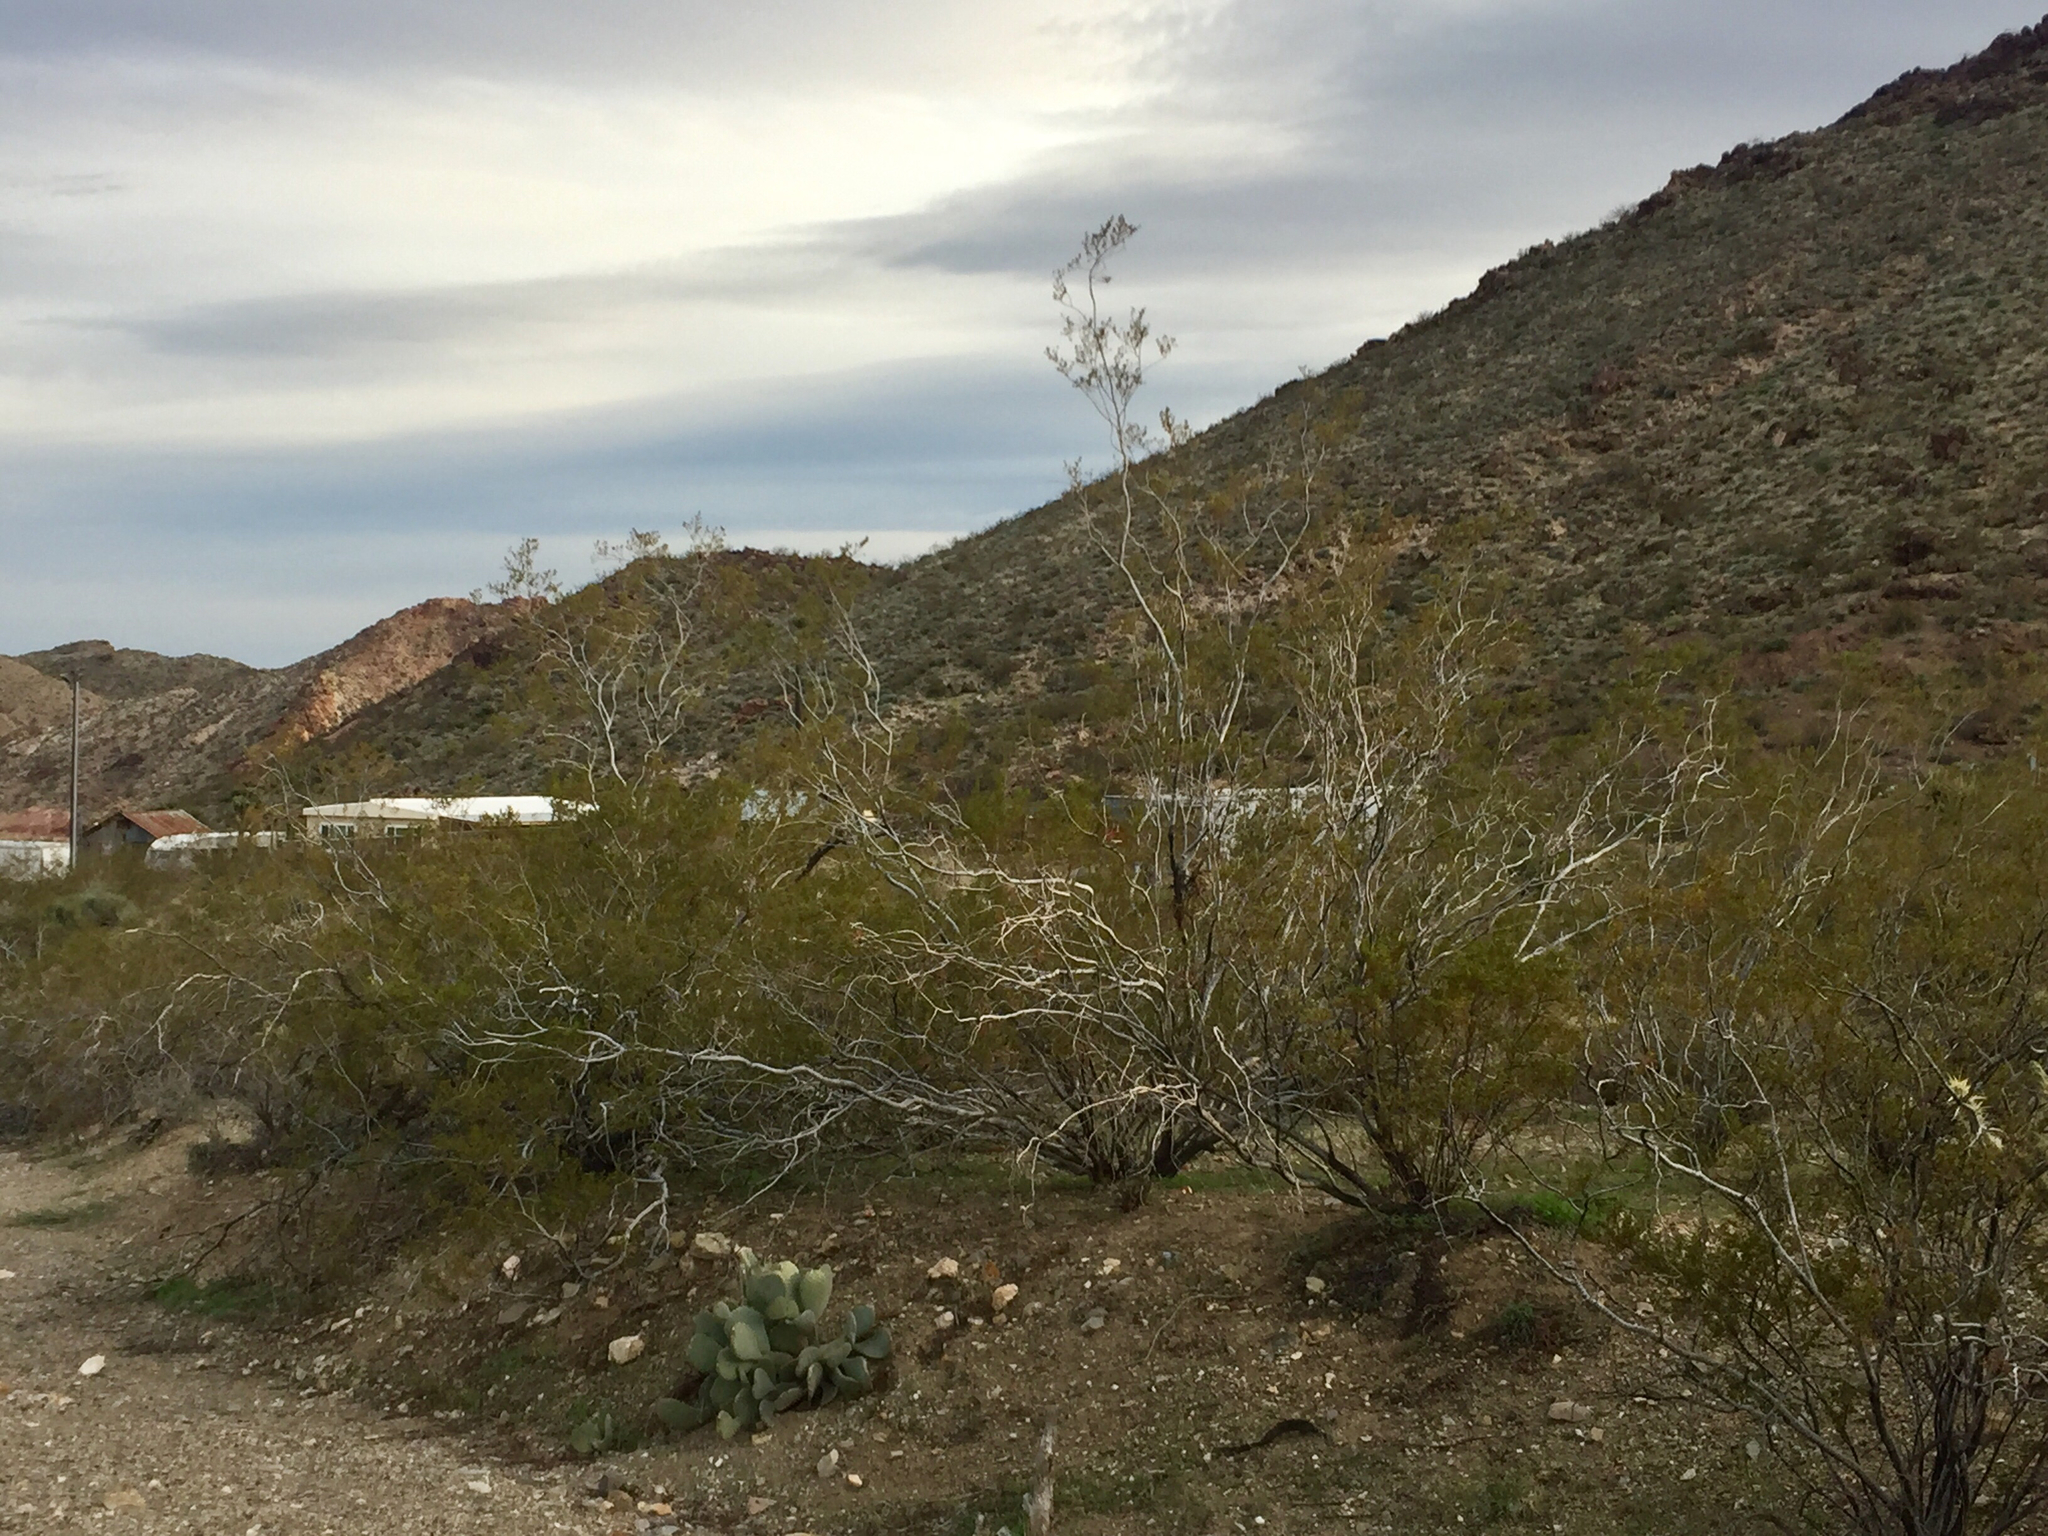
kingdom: Plantae
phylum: Tracheophyta
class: Magnoliopsida
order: Zygophyllales
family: Zygophyllaceae
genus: Larrea
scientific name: Larrea tridentata
